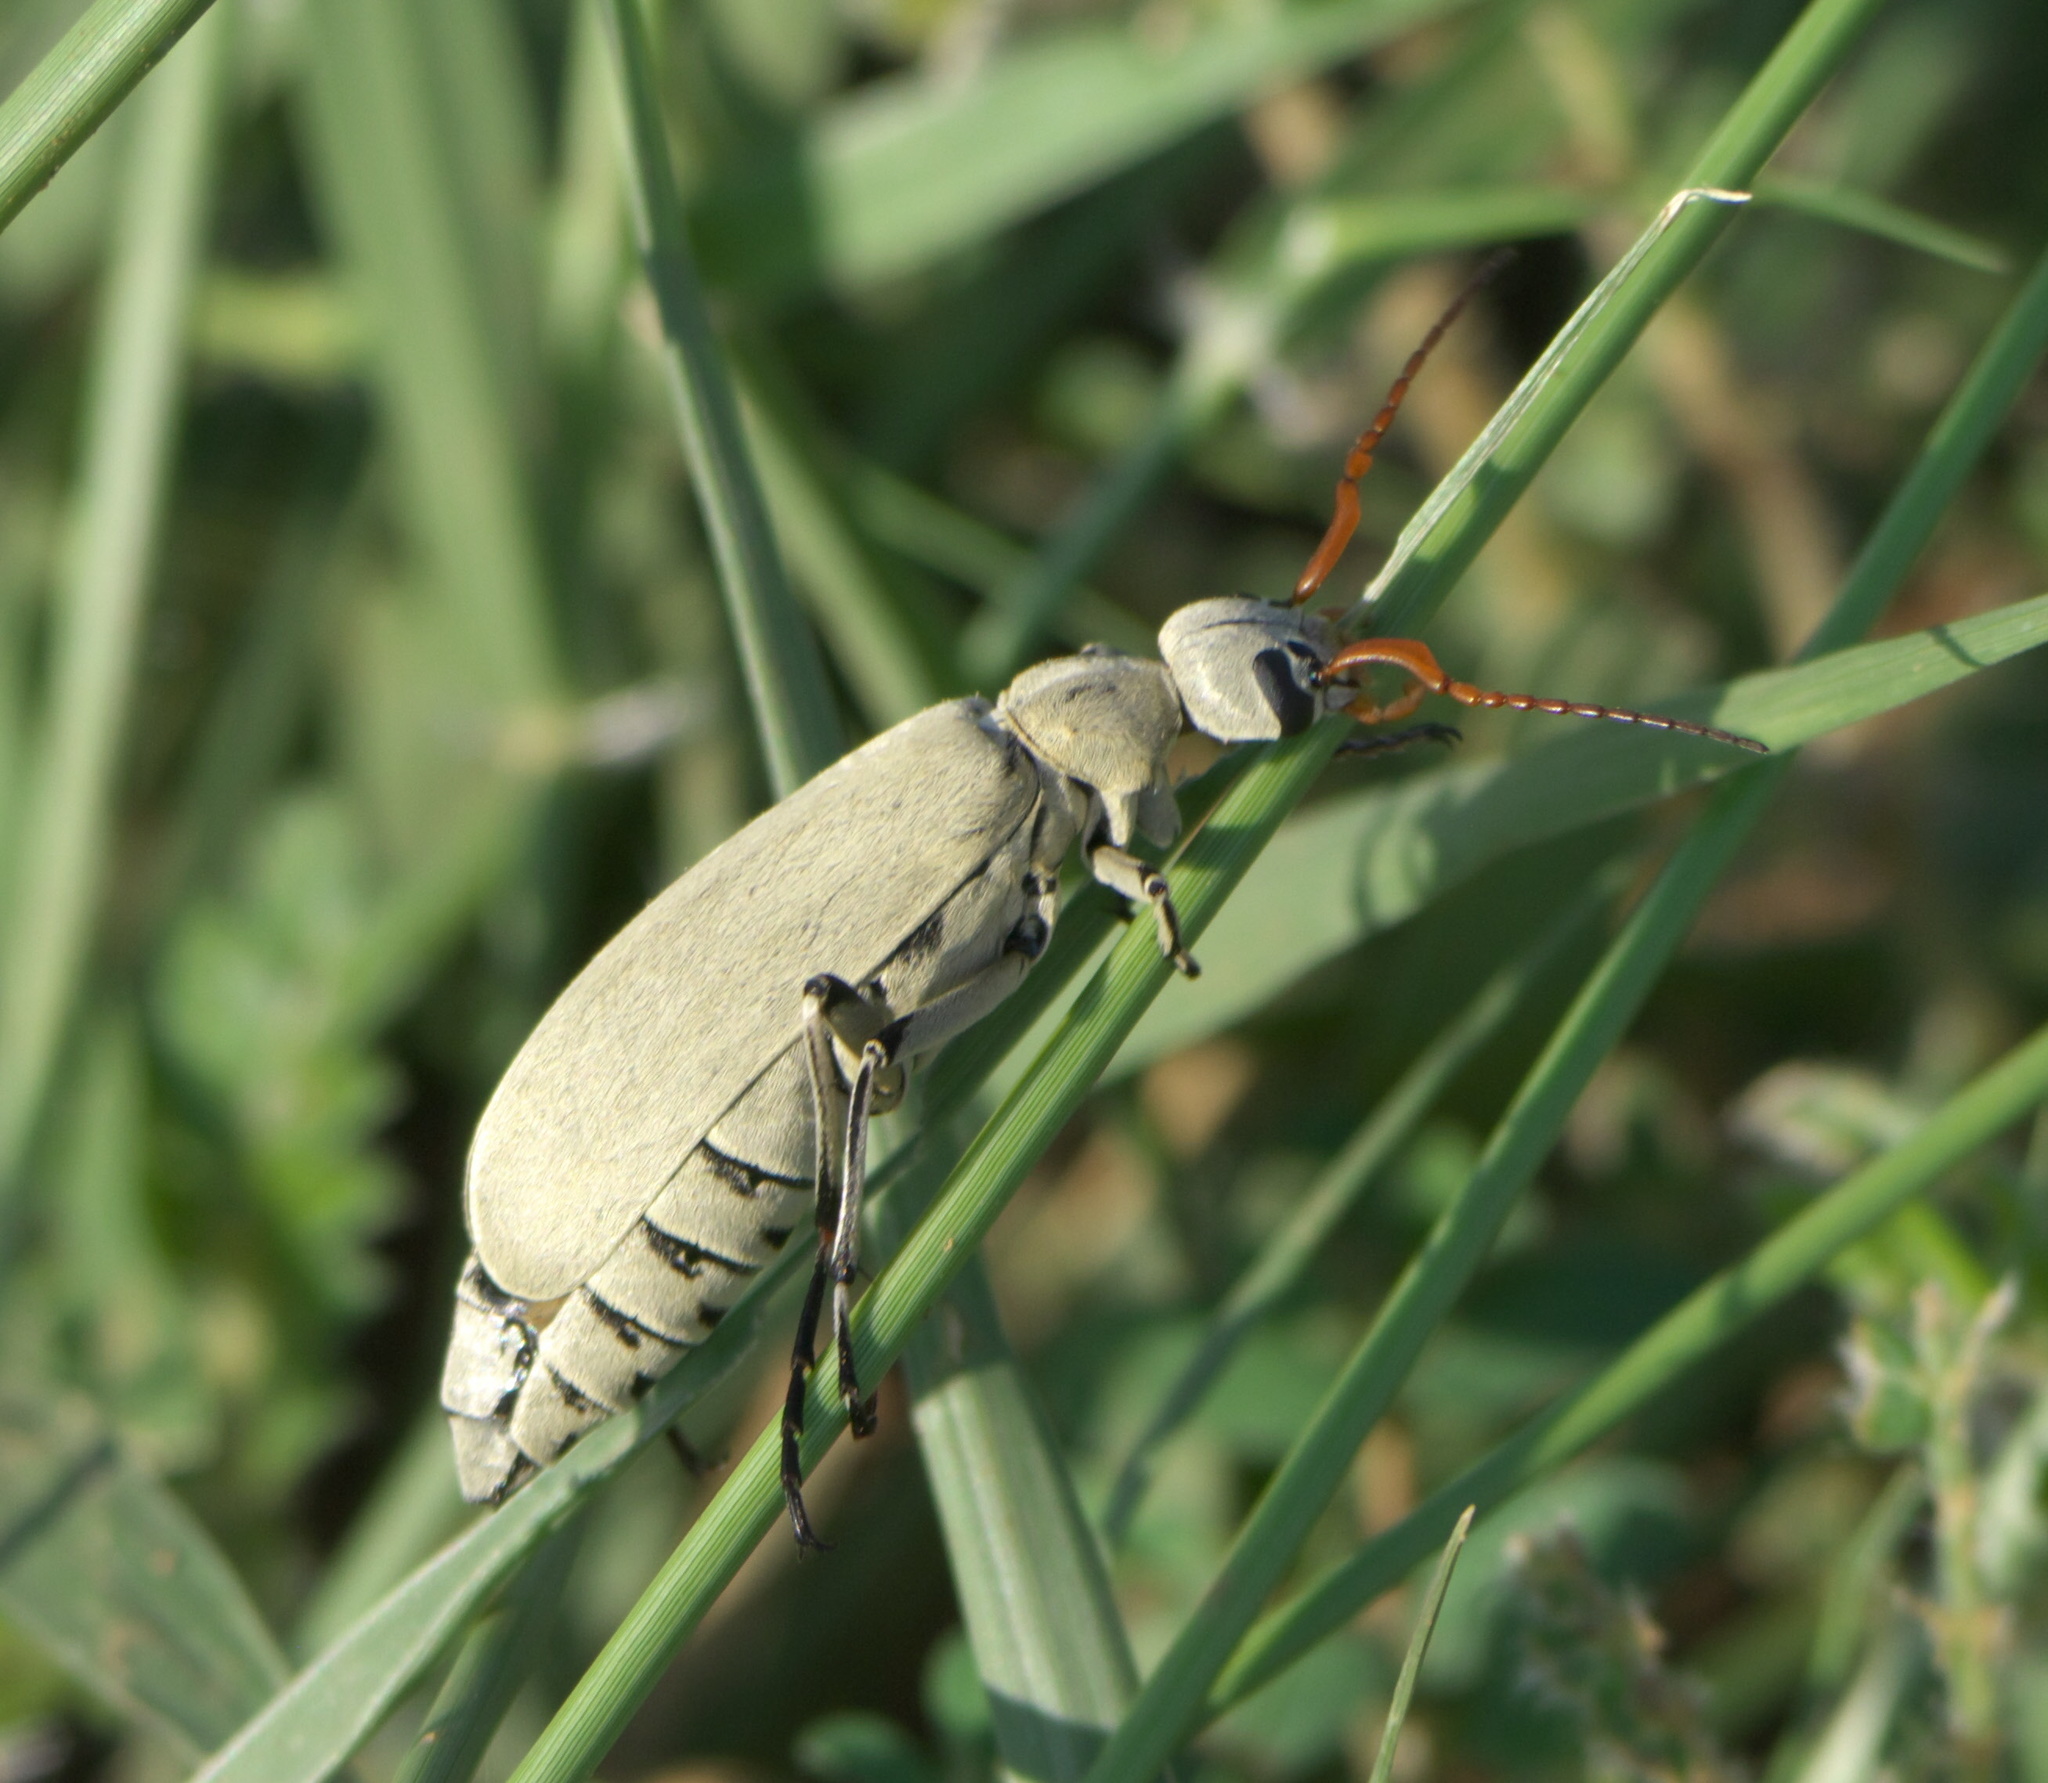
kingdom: Animalia
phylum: Arthropoda
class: Insecta
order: Coleoptera
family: Meloidae
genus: Epicauta
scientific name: Epicauta albida
